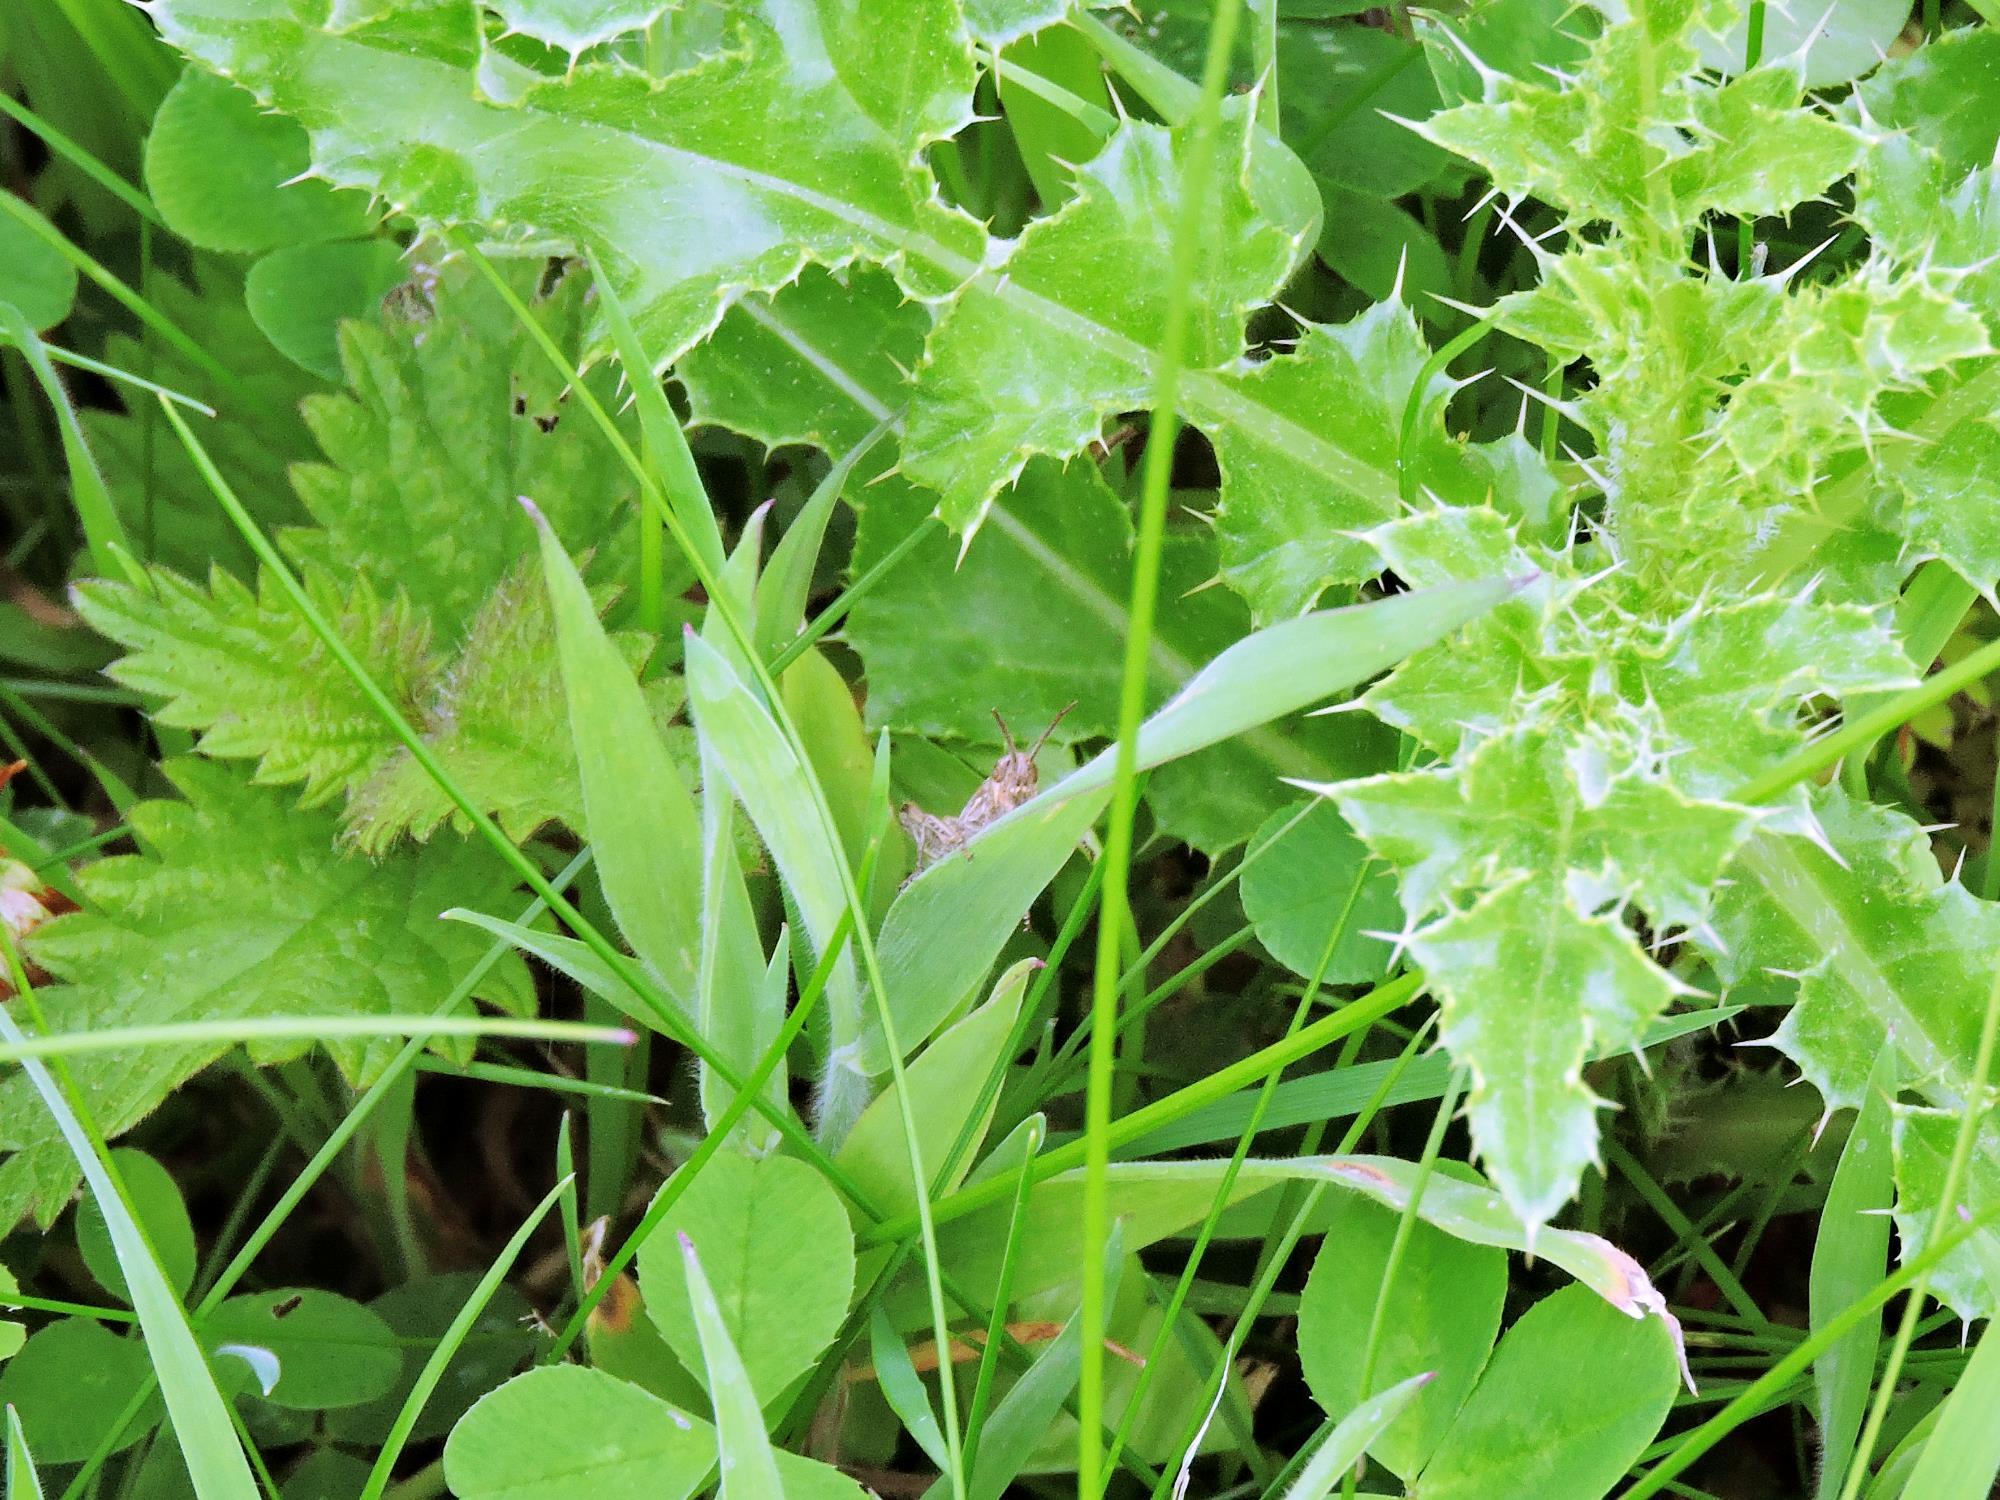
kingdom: Animalia
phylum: Arthropoda
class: Insecta
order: Orthoptera
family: Acrididae
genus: Chorthippus
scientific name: Chorthippus brunneus
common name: Field grasshopper
